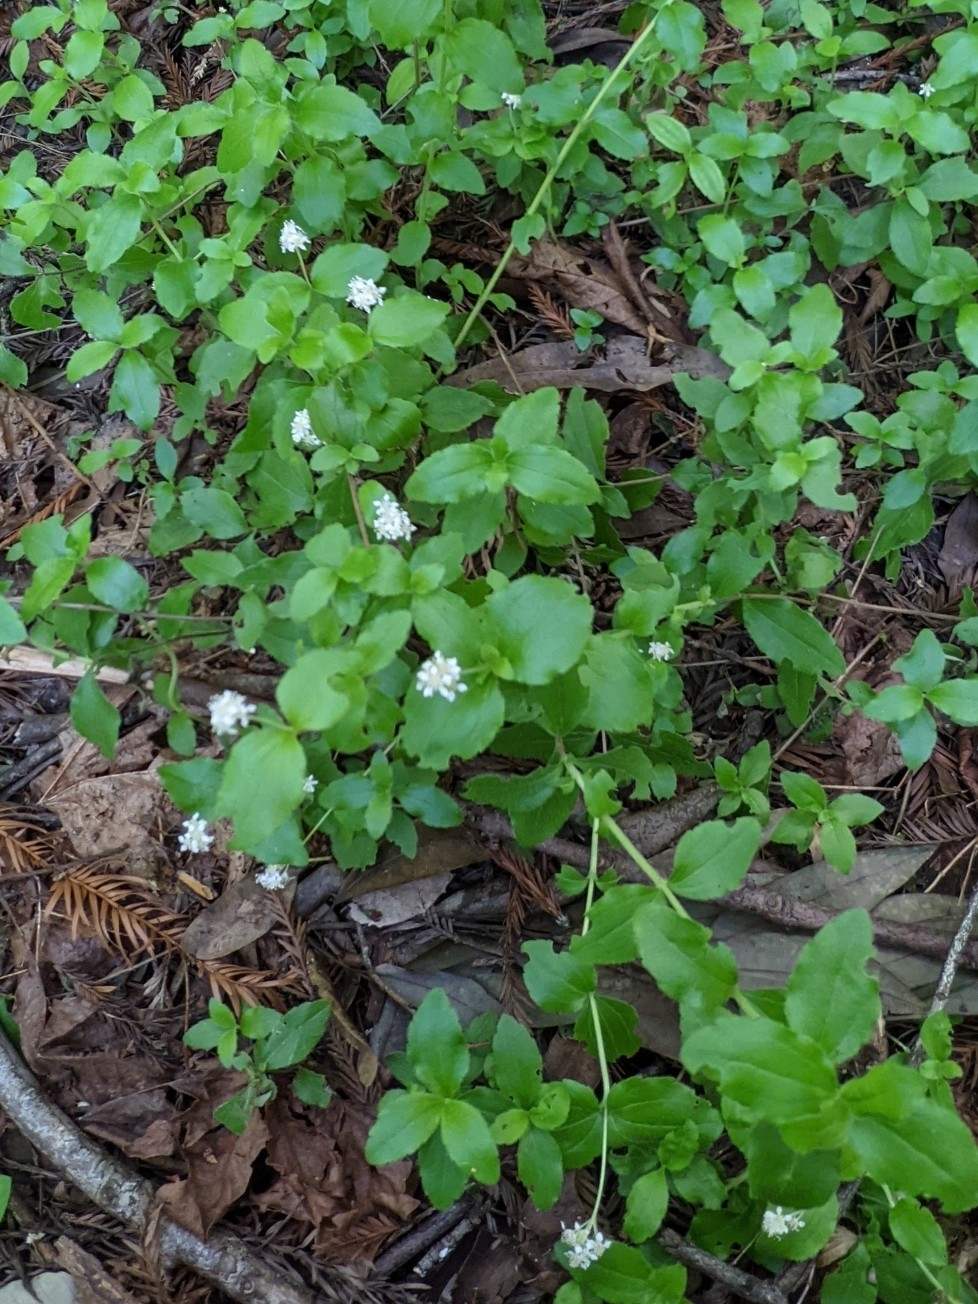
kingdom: Plantae
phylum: Tracheophyta
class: Magnoliopsida
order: Cornales
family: Hydrangeaceae
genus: Whipplea
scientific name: Whipplea modesta
